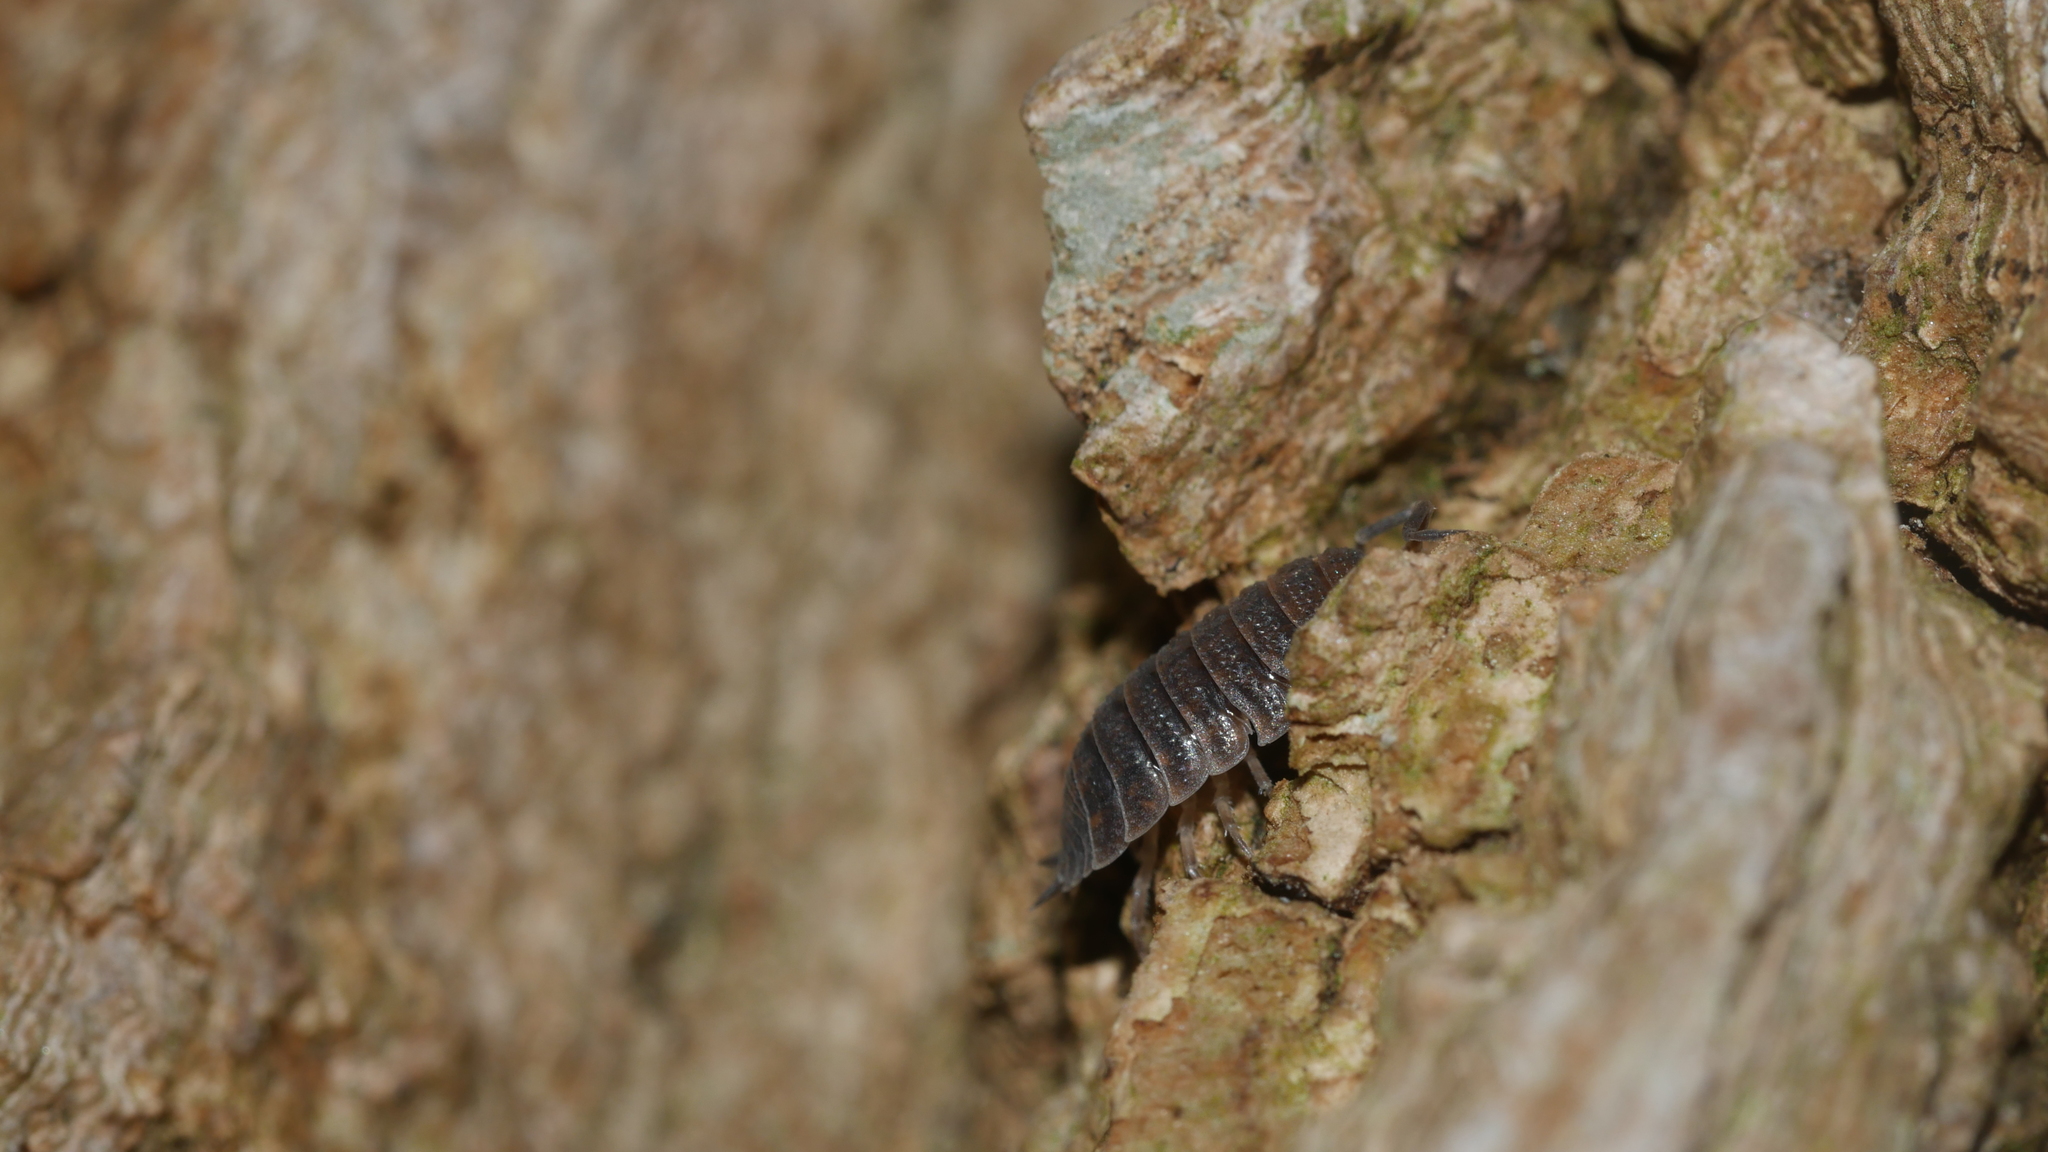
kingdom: Animalia
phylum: Arthropoda
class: Malacostraca
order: Isopoda
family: Porcellionidae
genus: Porcellio
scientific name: Porcellio scaber
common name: Common rough woodlouse
